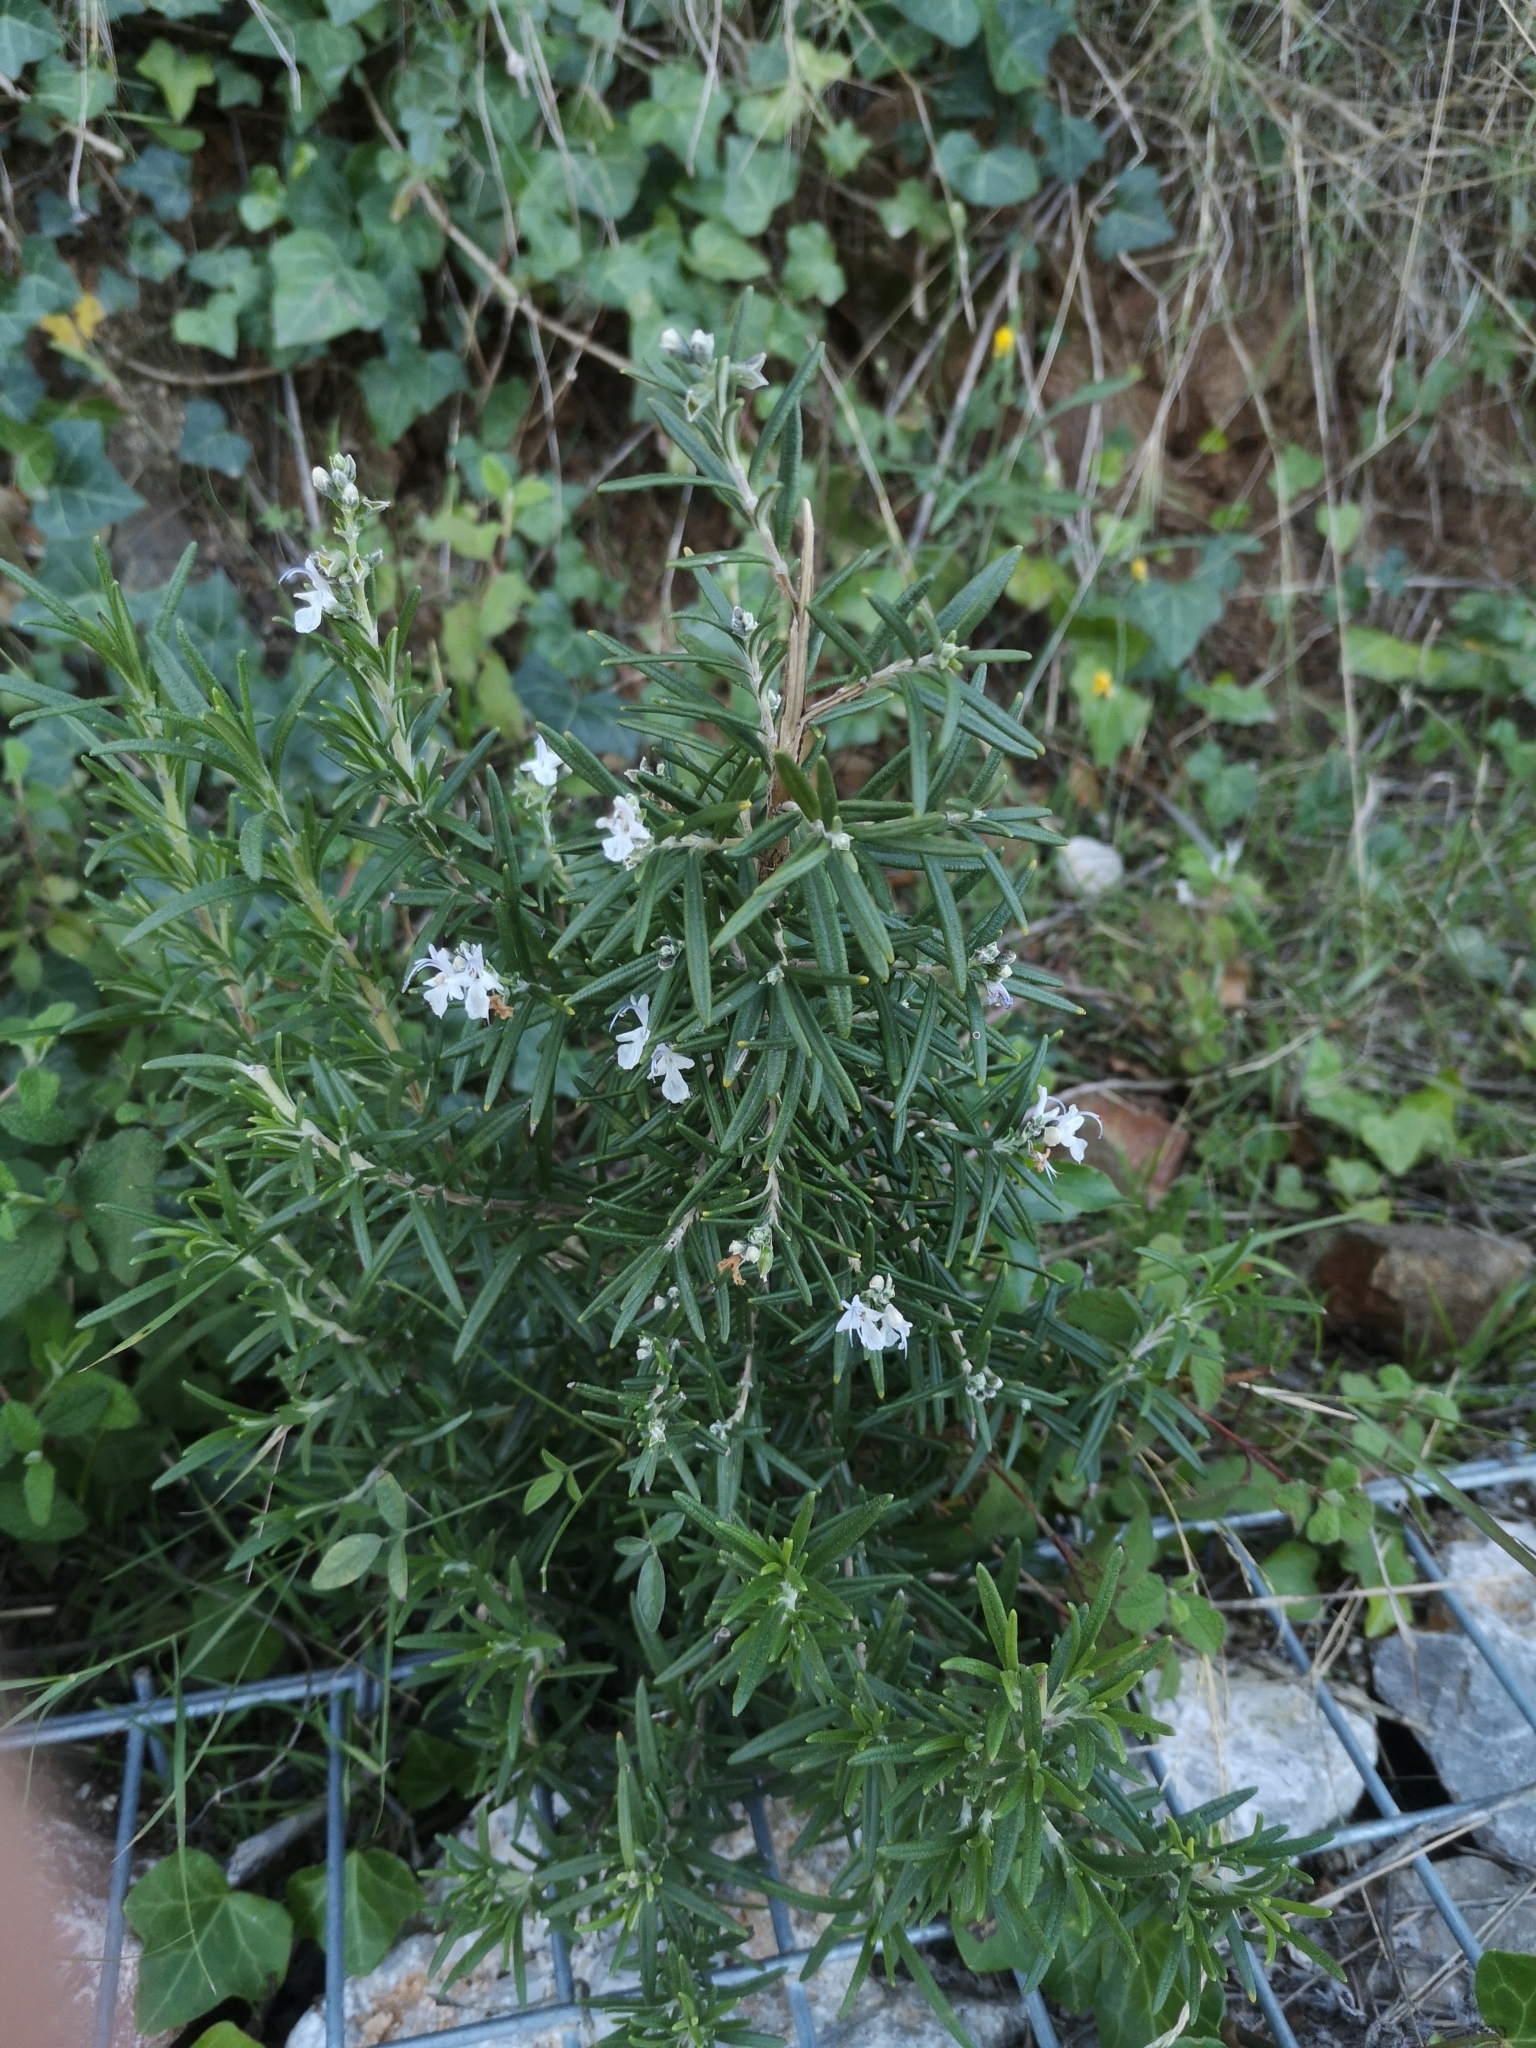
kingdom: Plantae
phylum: Tracheophyta
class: Magnoliopsida
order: Lamiales
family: Lamiaceae
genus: Salvia
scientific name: Salvia rosmarinus
